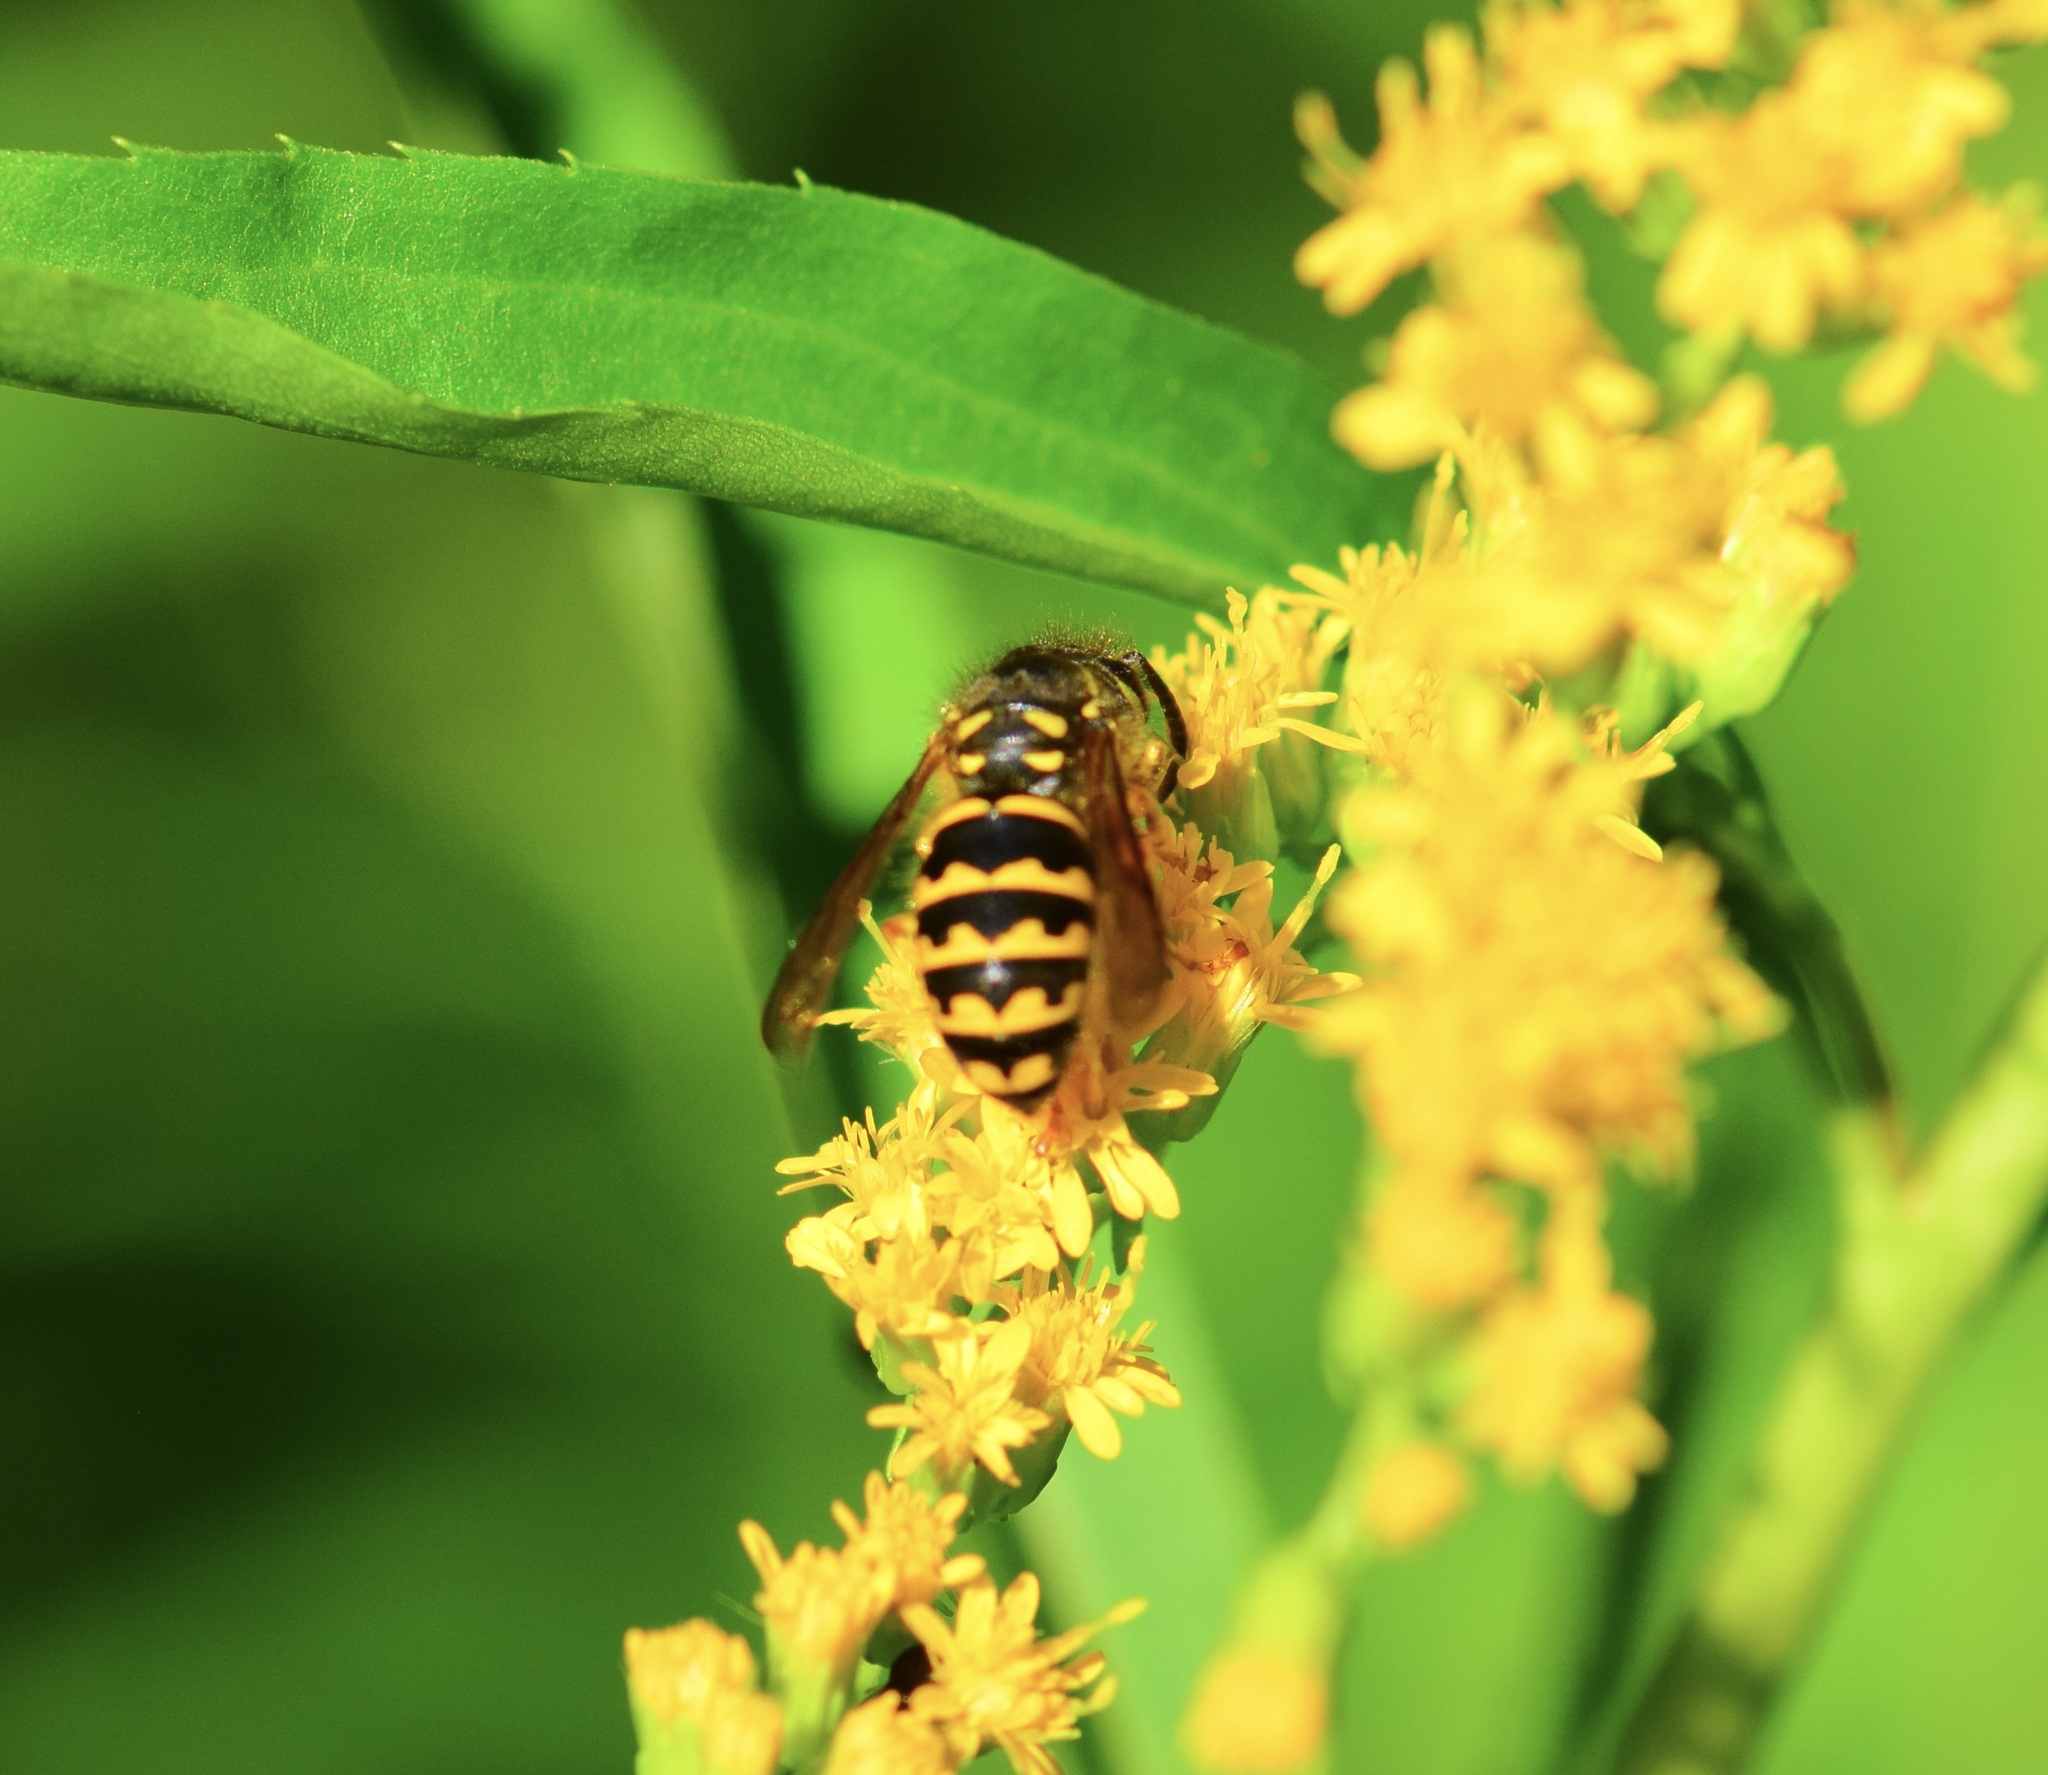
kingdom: Animalia
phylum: Arthropoda
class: Insecta
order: Hymenoptera
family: Vespidae
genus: Dolichovespula
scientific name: Dolichovespula arenaria
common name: Aerial yellowjacket
